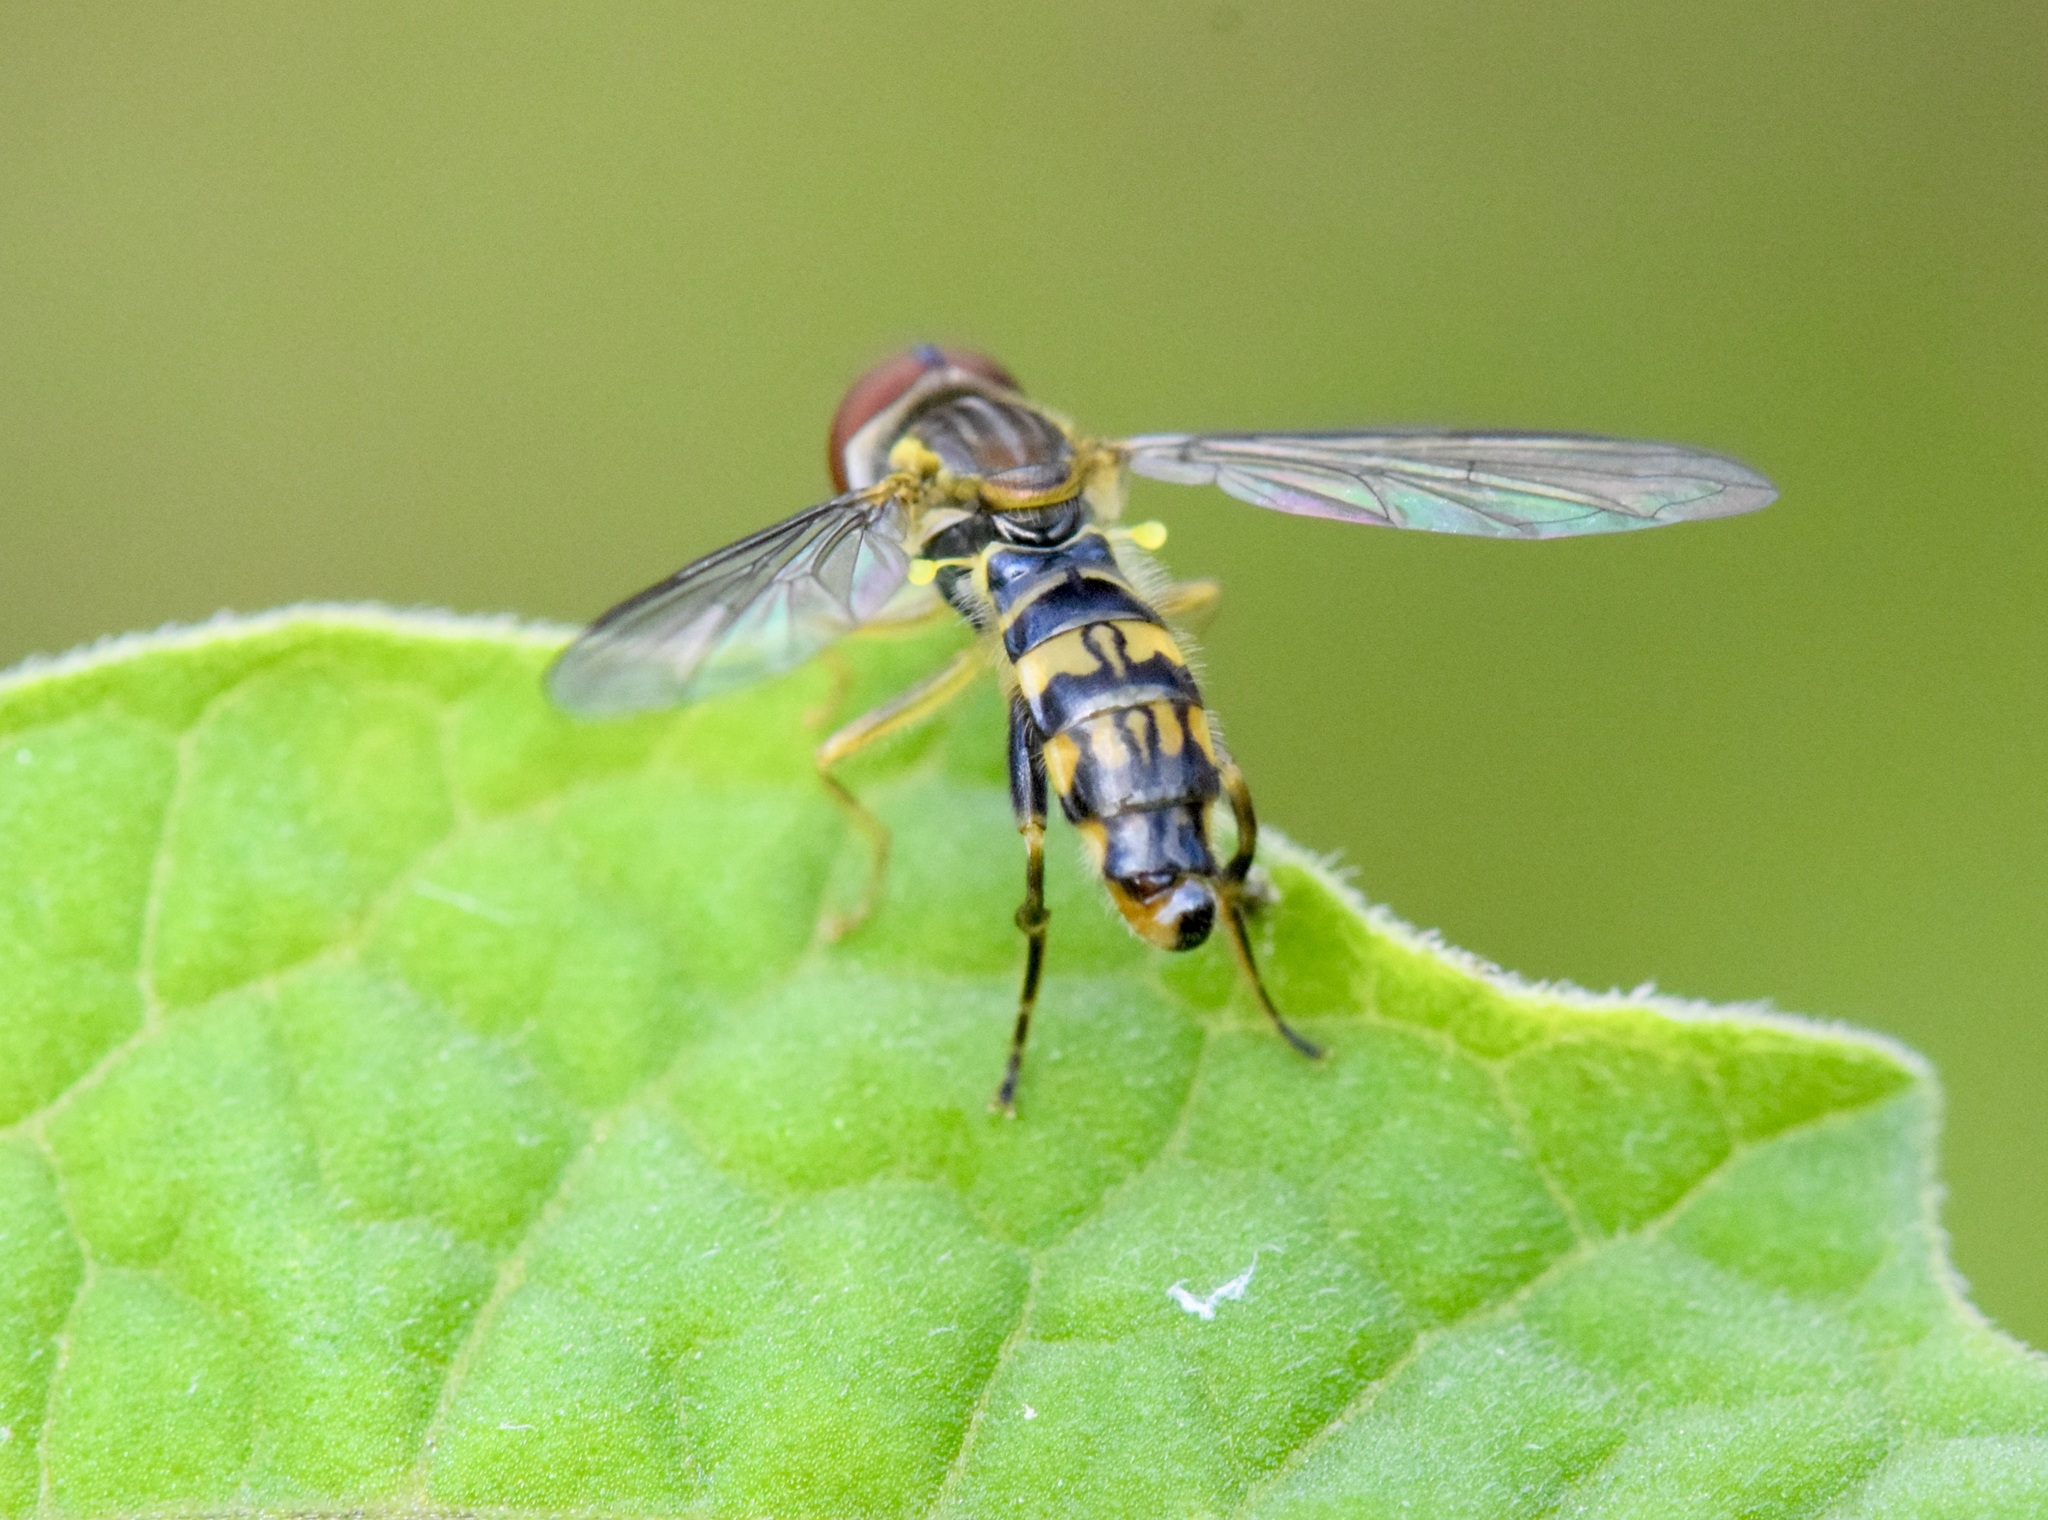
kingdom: Animalia
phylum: Arthropoda
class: Insecta
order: Diptera
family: Syrphidae
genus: Toxomerus
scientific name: Toxomerus geminatus
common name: Eastern calligrapher
